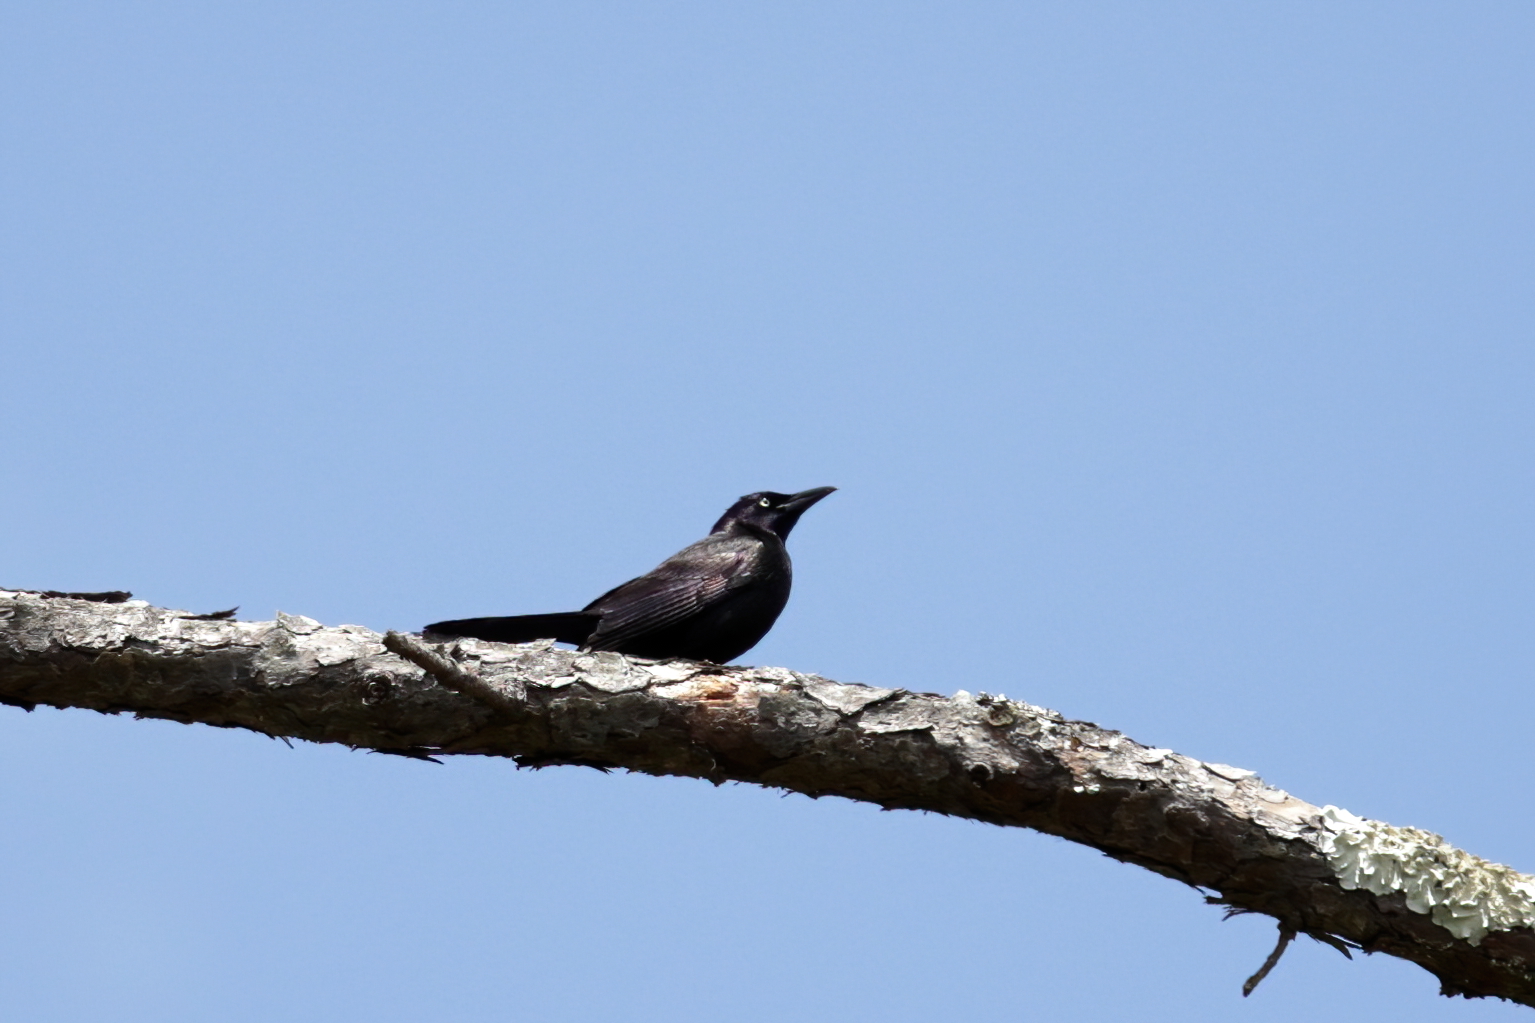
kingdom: Animalia
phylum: Chordata
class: Aves
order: Passeriformes
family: Icteridae
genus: Quiscalus
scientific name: Quiscalus quiscula
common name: Common grackle
